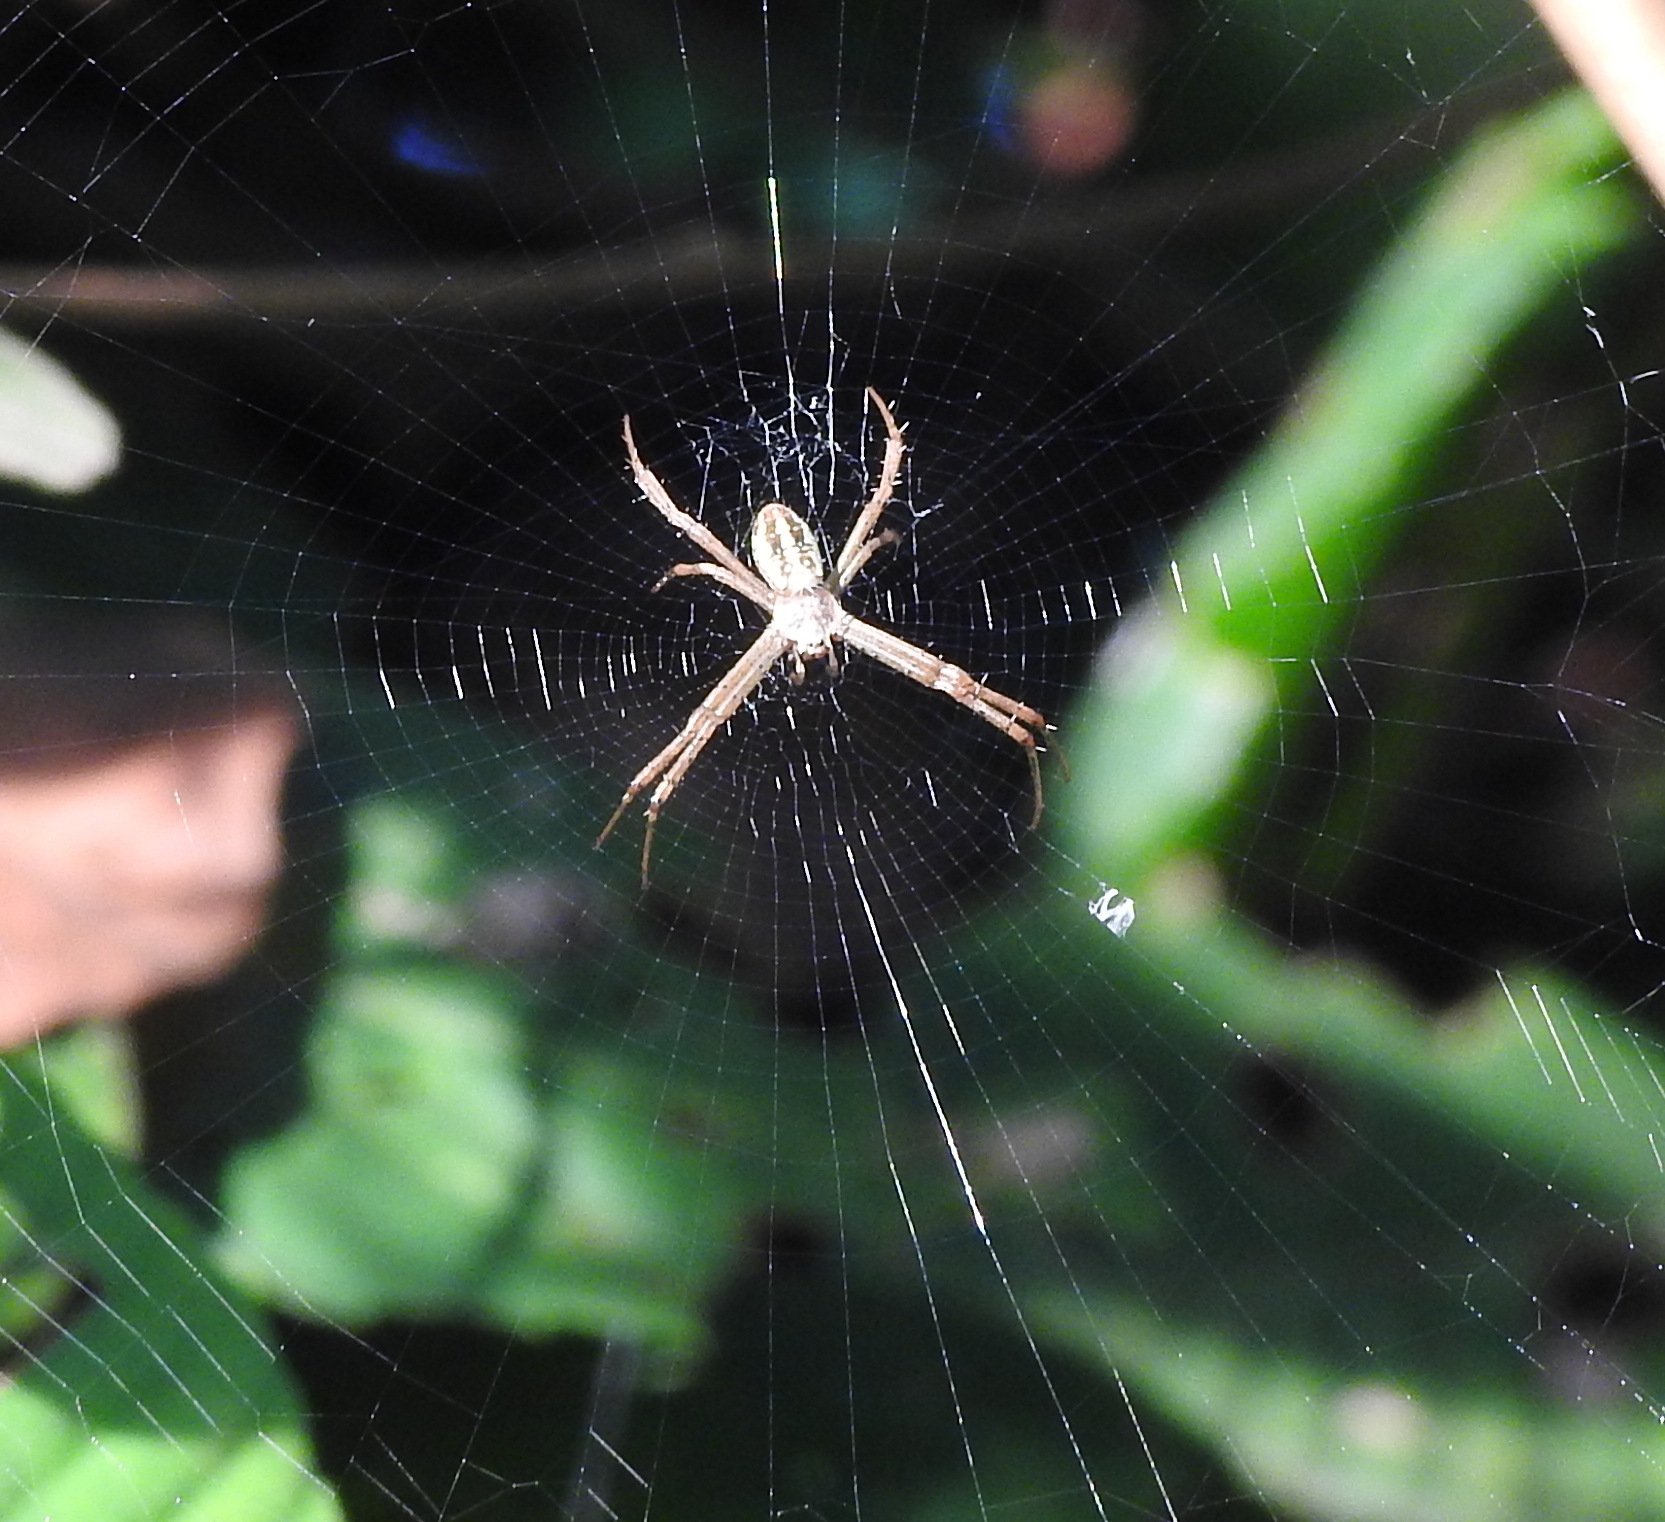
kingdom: Animalia
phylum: Arthropoda
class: Arachnida
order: Araneae
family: Araneidae
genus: Argiope
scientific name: Argiope dang
